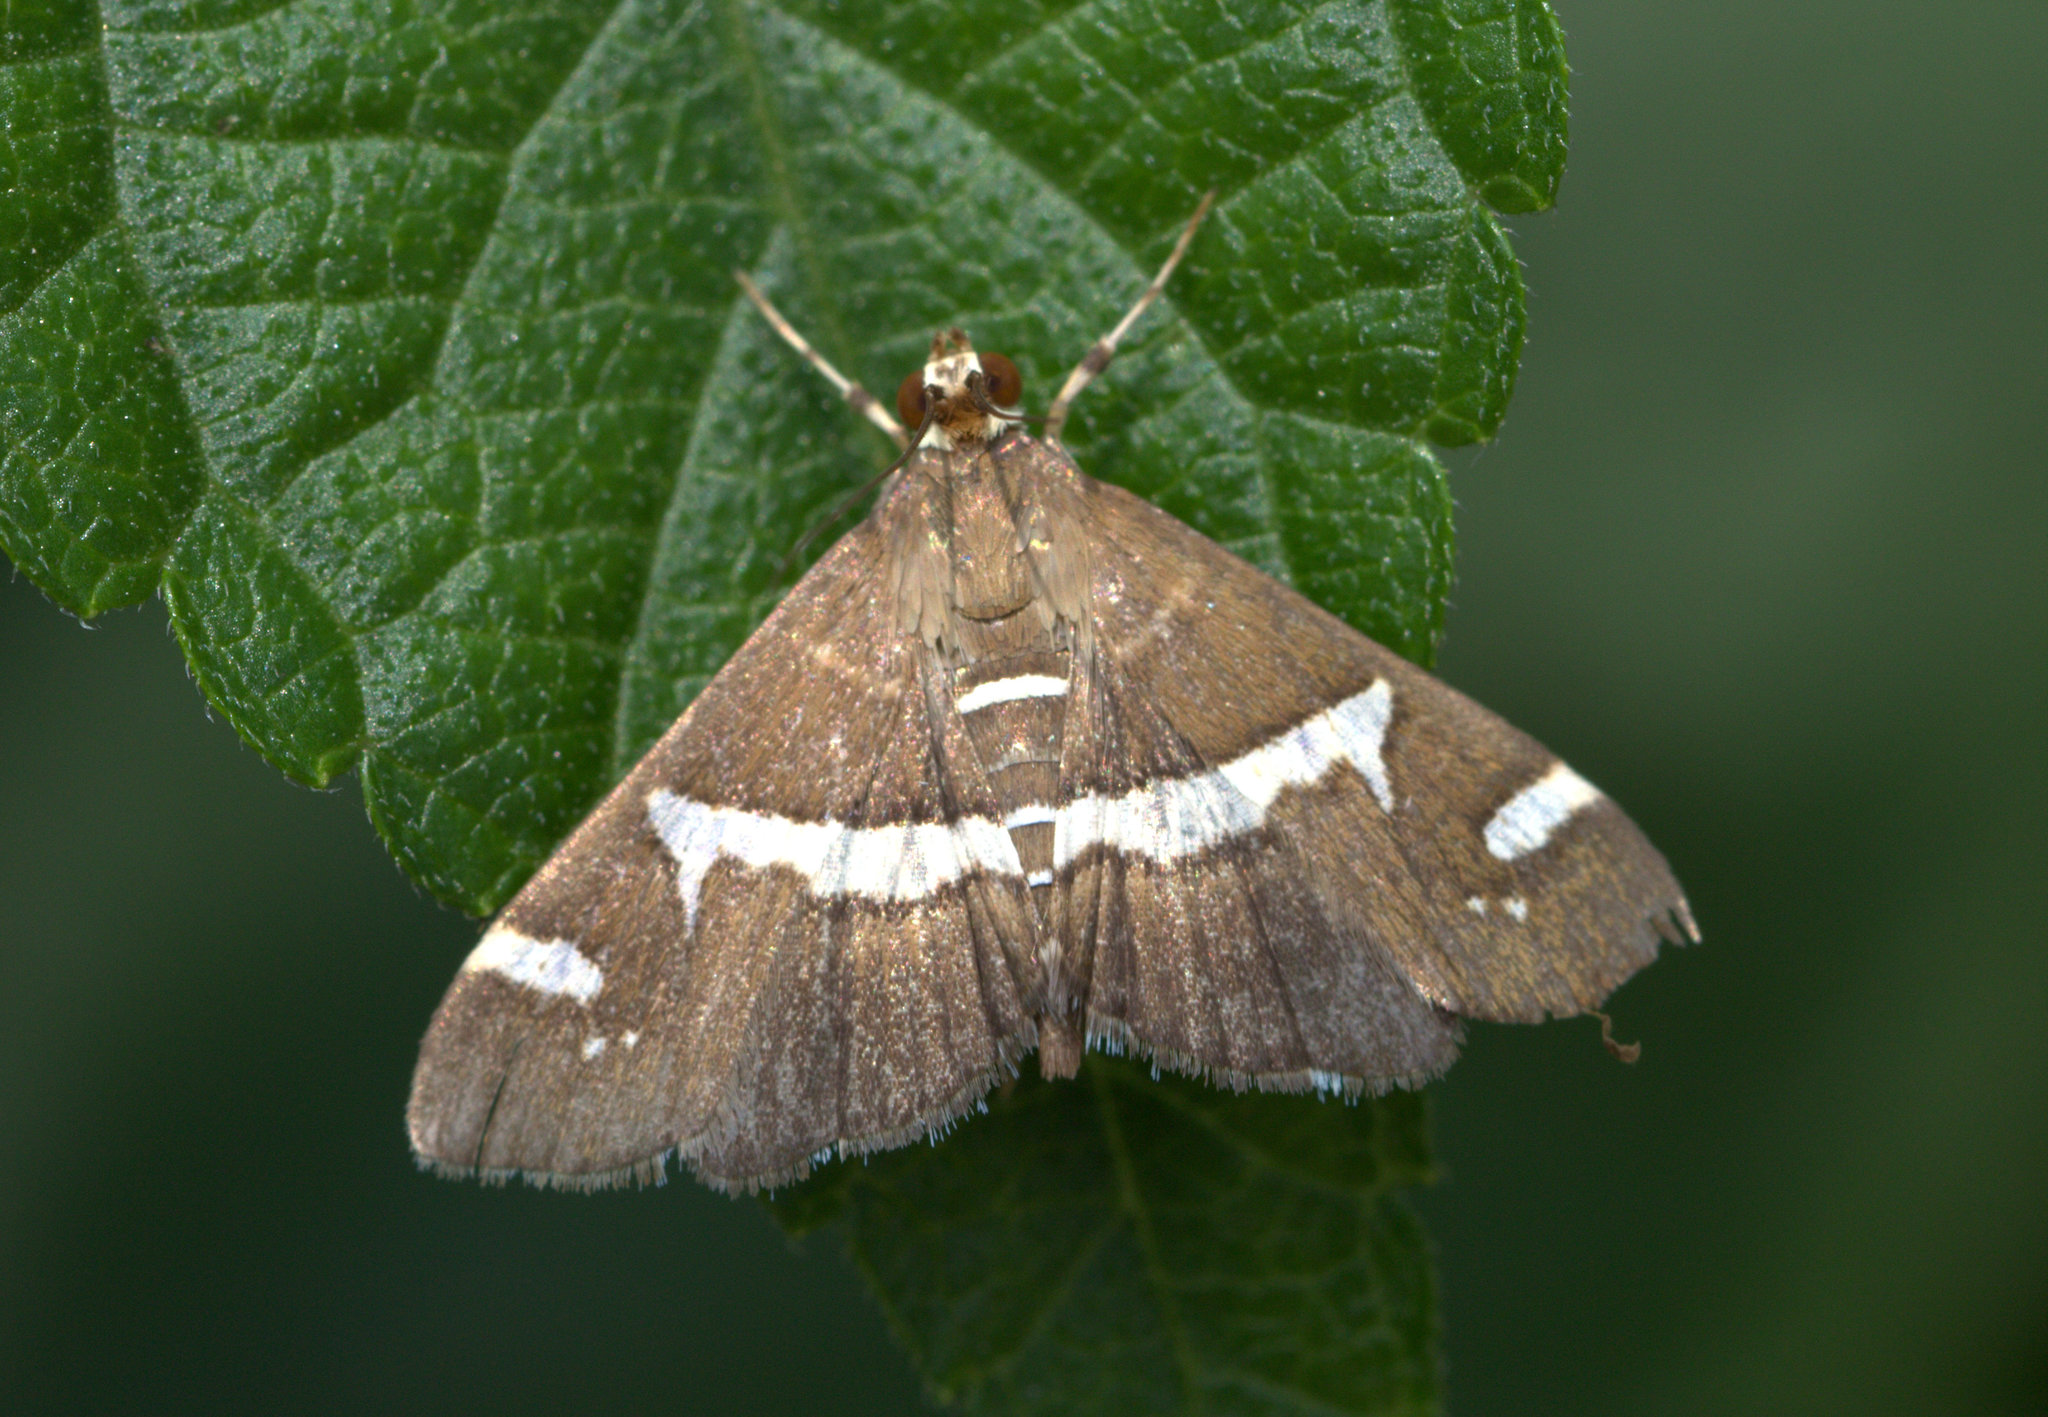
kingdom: Animalia
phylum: Arthropoda
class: Insecta
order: Lepidoptera
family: Crambidae
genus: Spoladea
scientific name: Spoladea recurvalis
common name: Beet webworm moth
